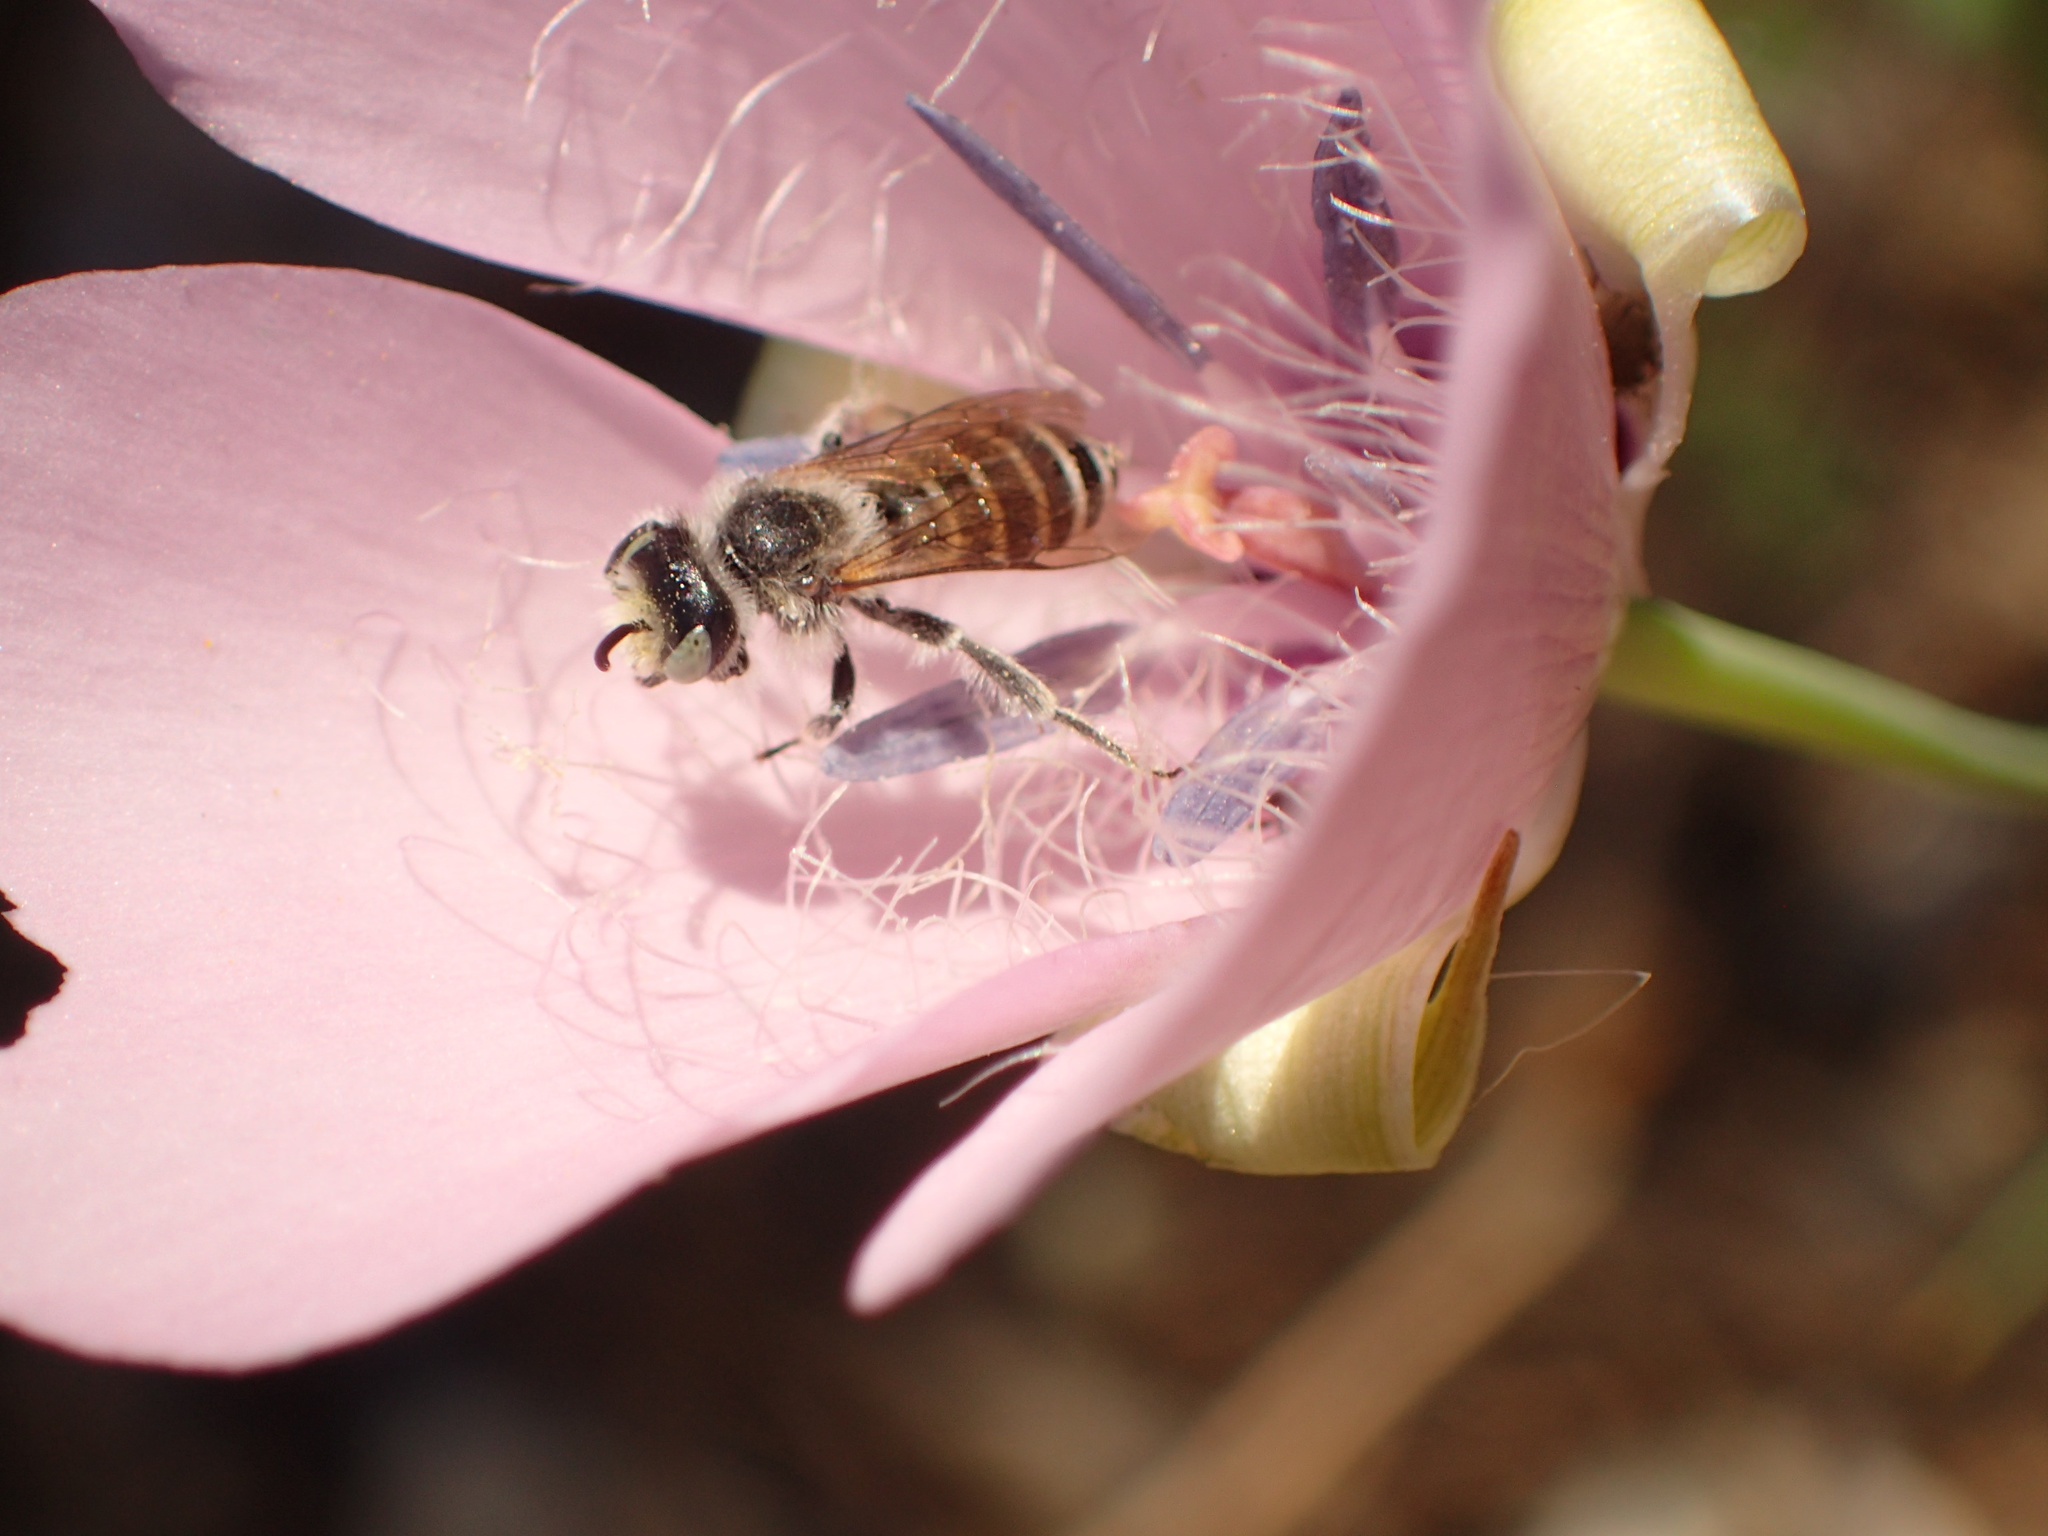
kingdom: Animalia
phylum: Arthropoda
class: Insecta
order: Hymenoptera
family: Melittidae
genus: Hesperapis
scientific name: Hesperapis regularis
